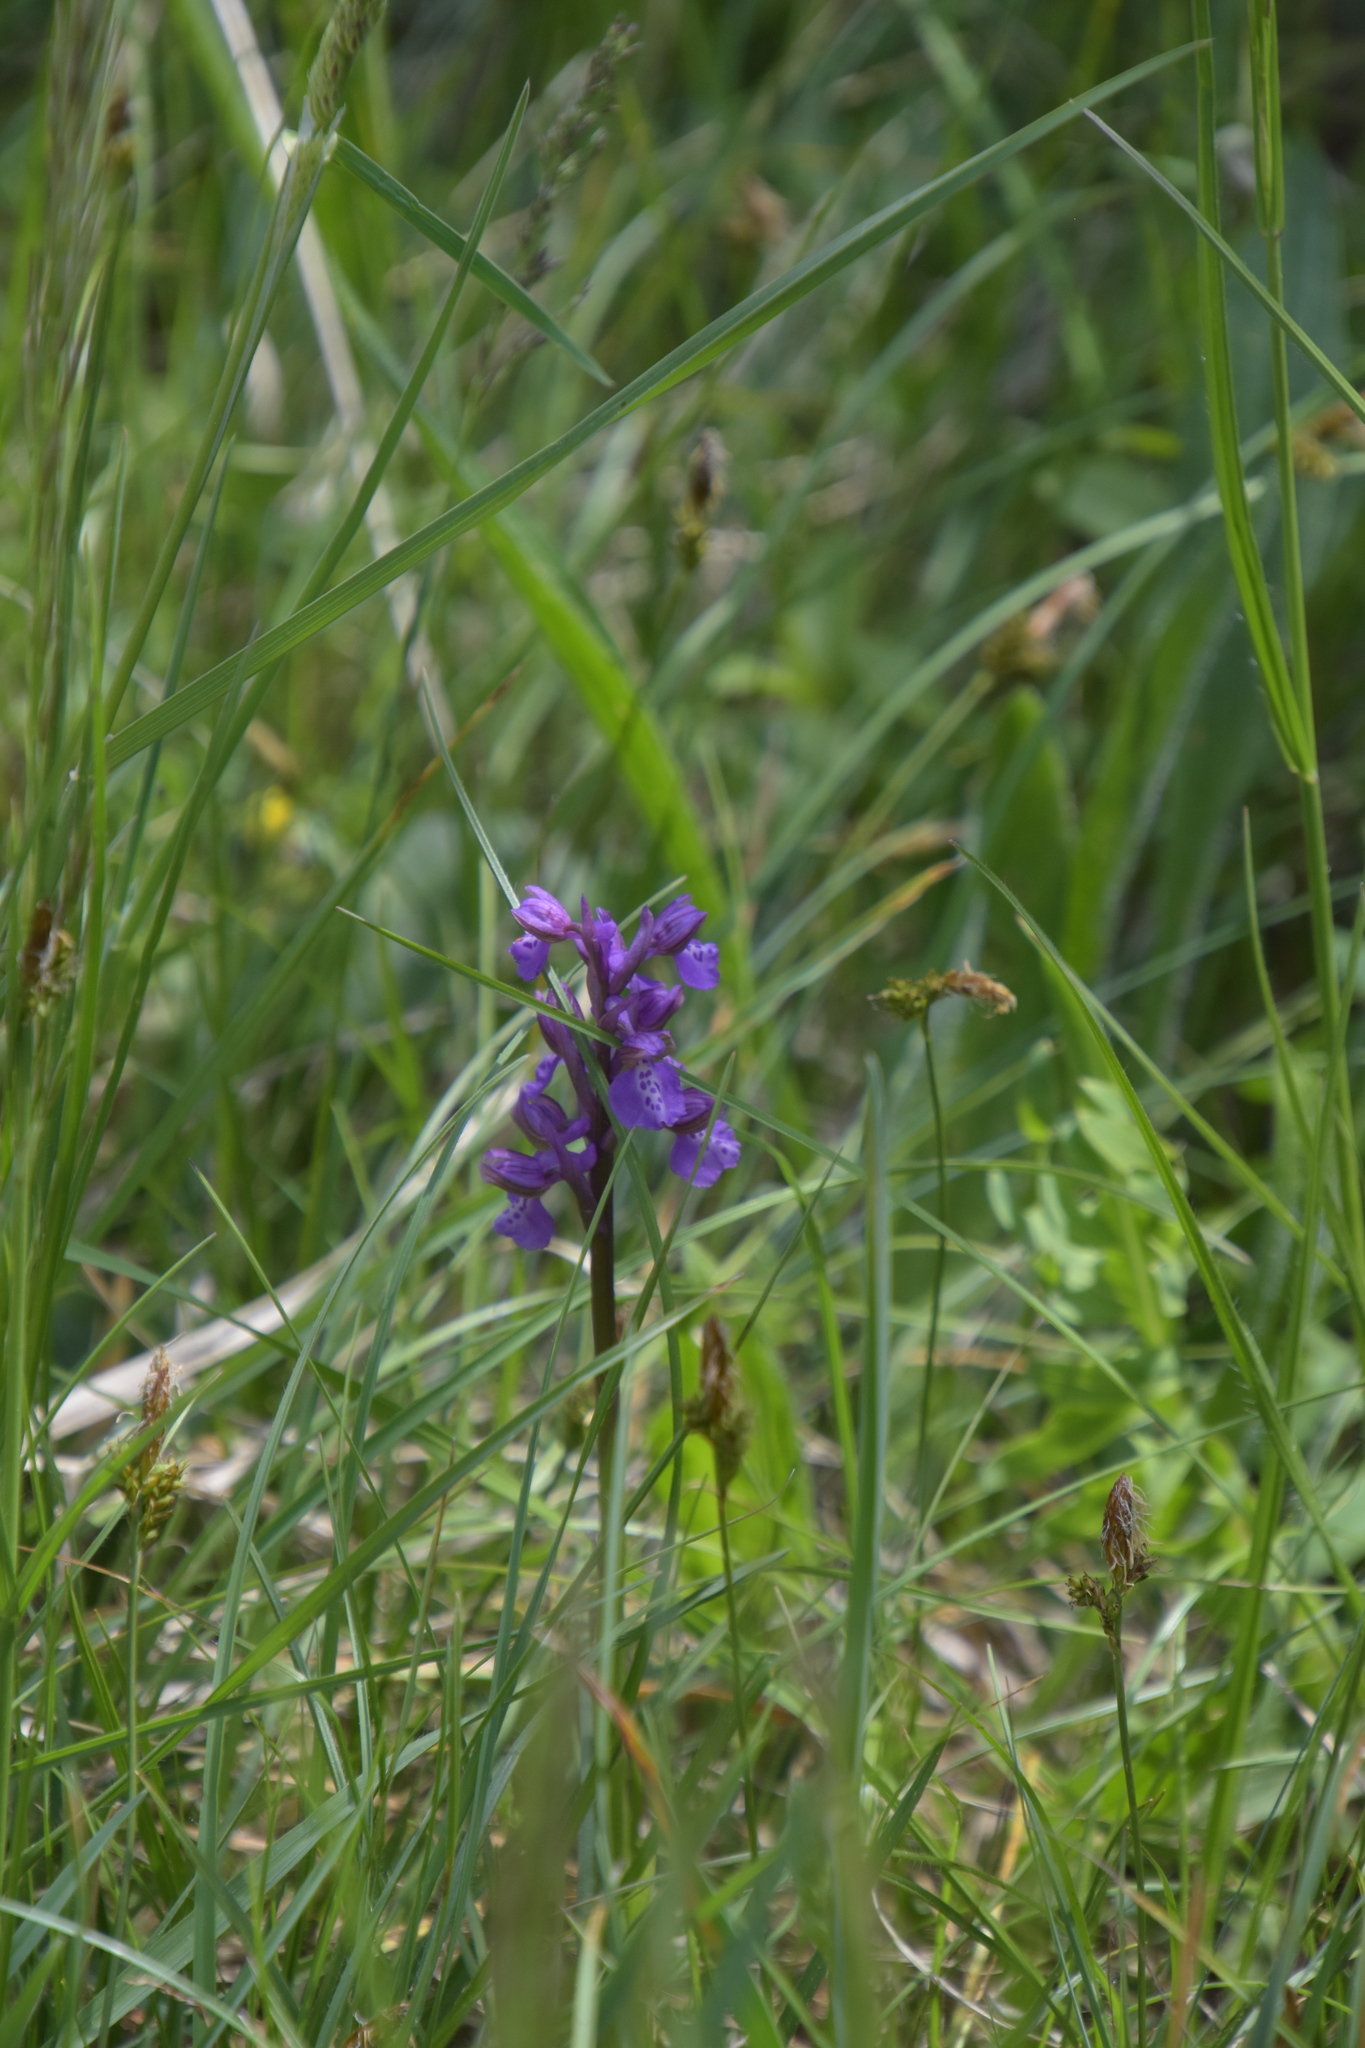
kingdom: Plantae
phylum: Tracheophyta
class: Liliopsida
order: Asparagales
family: Orchidaceae
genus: Anacamptis
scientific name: Anacamptis morio
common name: Green-winged orchid
